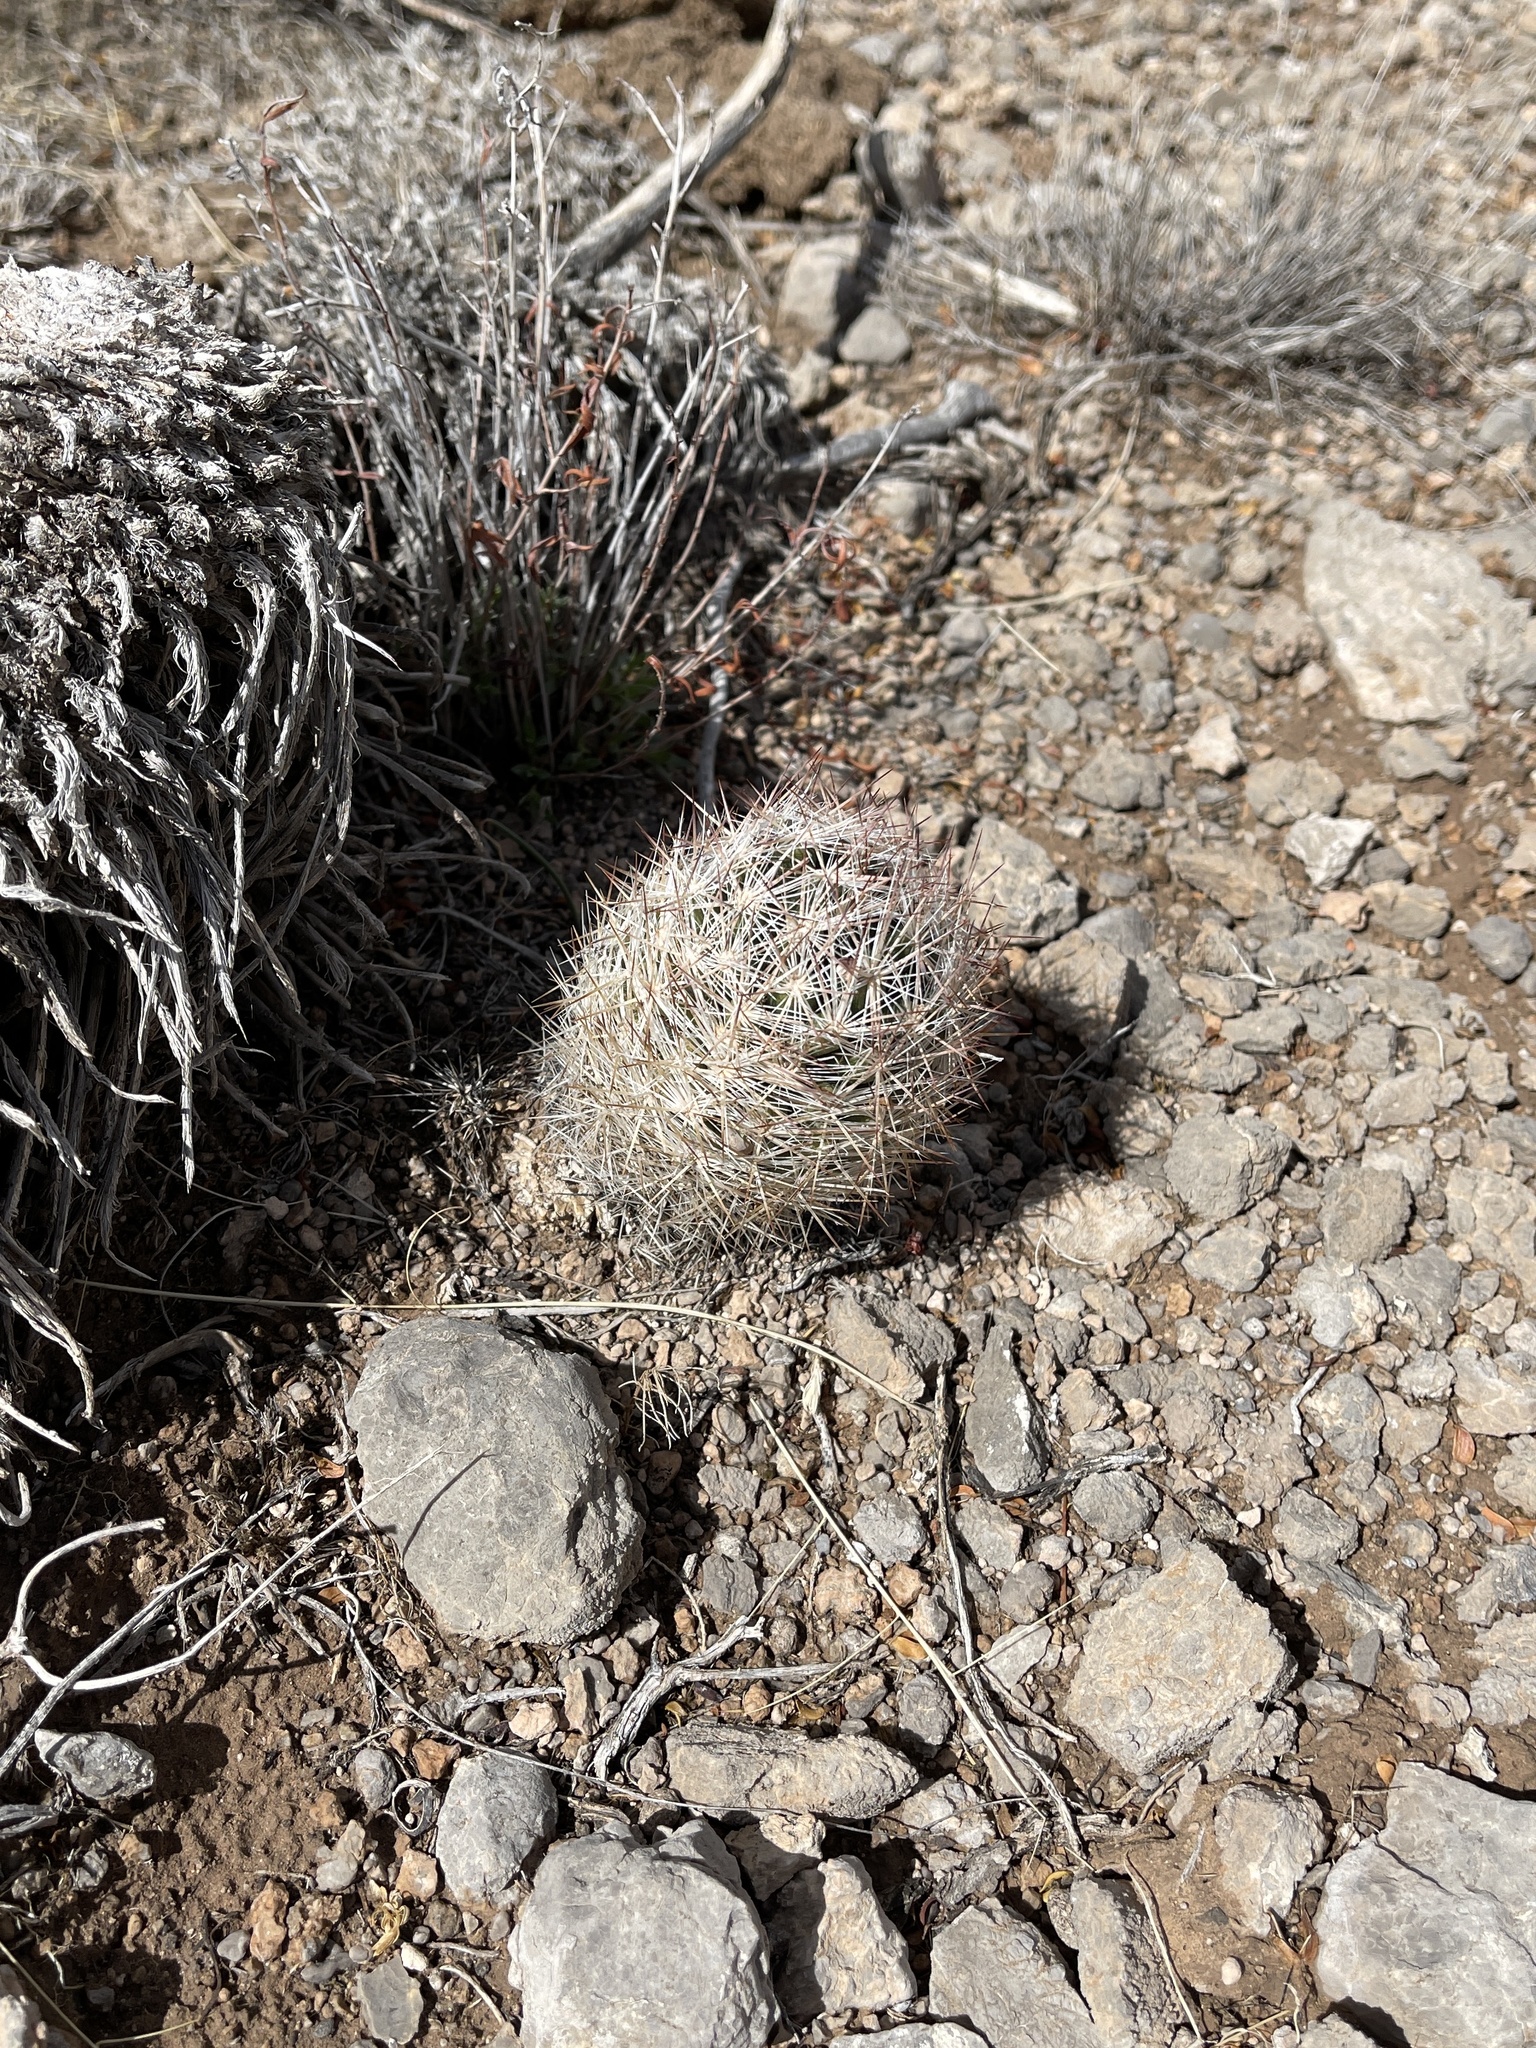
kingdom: Plantae
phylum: Tracheophyta
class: Magnoliopsida
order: Caryophyllales
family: Cactaceae
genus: Pelecyphora
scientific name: Pelecyphora vivipara
